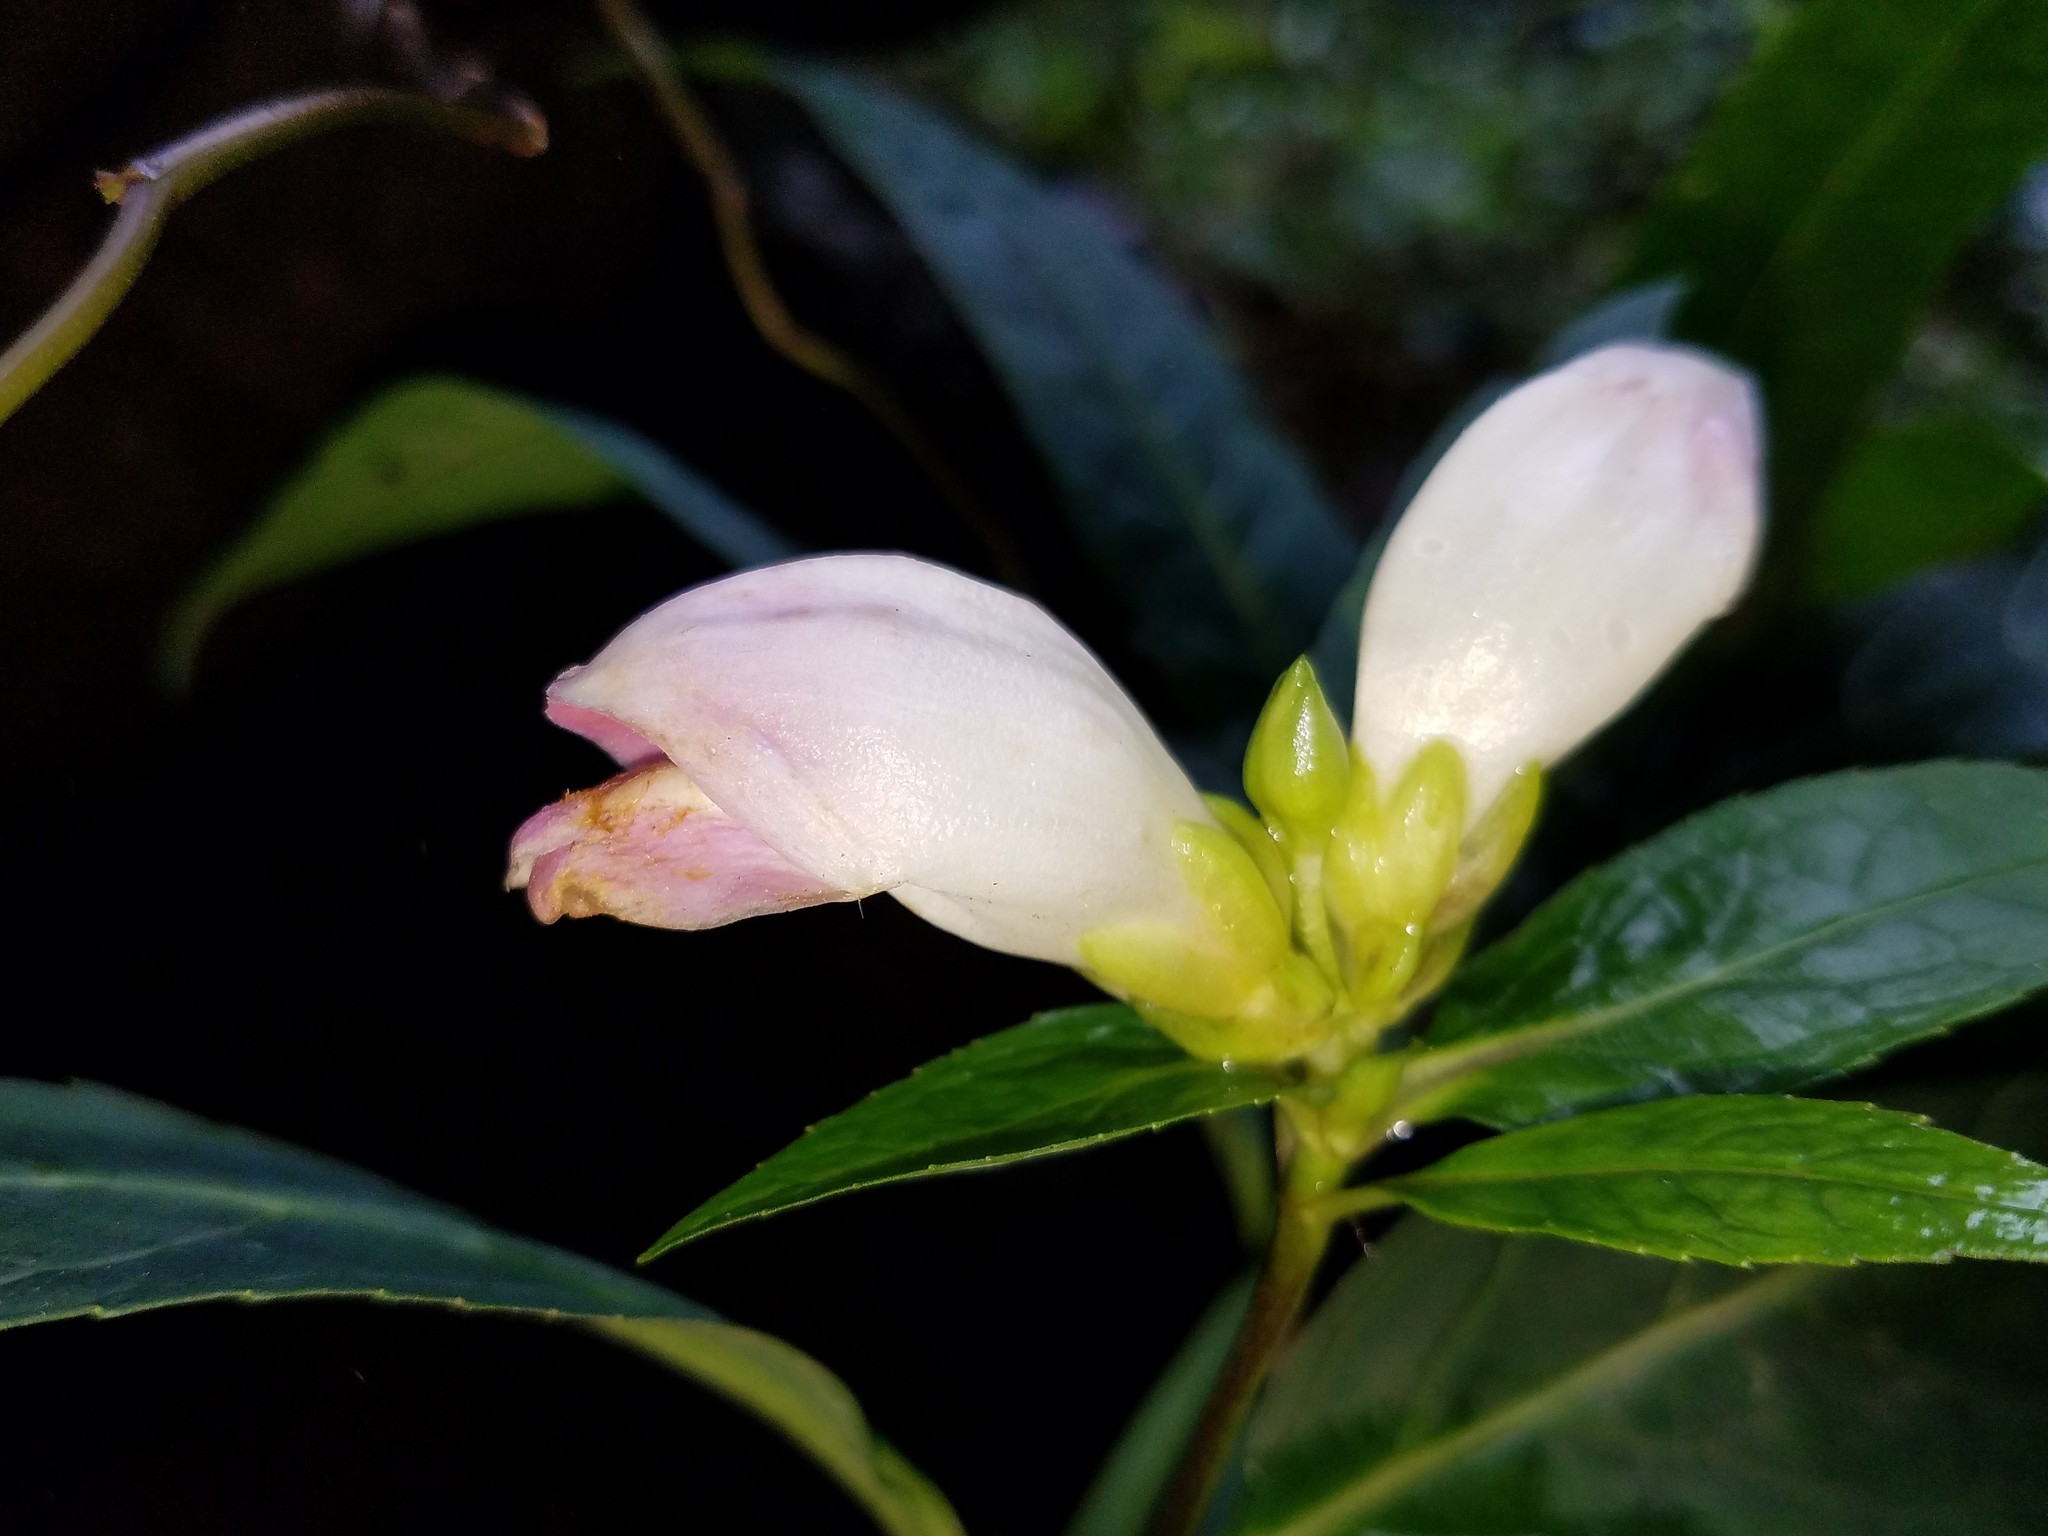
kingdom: Plantae
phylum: Tracheophyta
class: Magnoliopsida
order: Lamiales
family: Plantaginaceae
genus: Chelone
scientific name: Chelone glabra
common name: Snakehead
